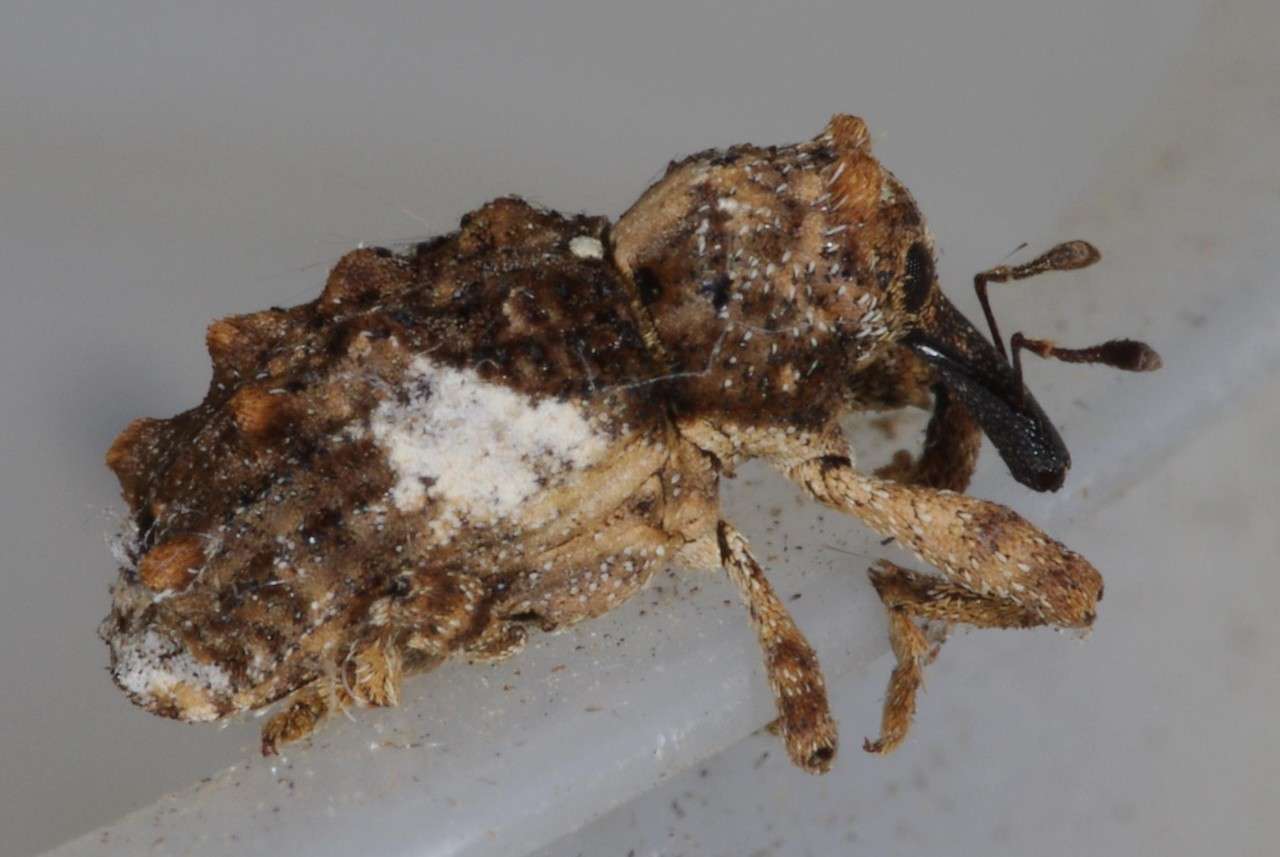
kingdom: Animalia
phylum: Arthropoda
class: Insecta
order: Coleoptera
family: Curculionidae
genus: Orthorhinus
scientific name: Orthorhinus klugii
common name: Vine weevil
